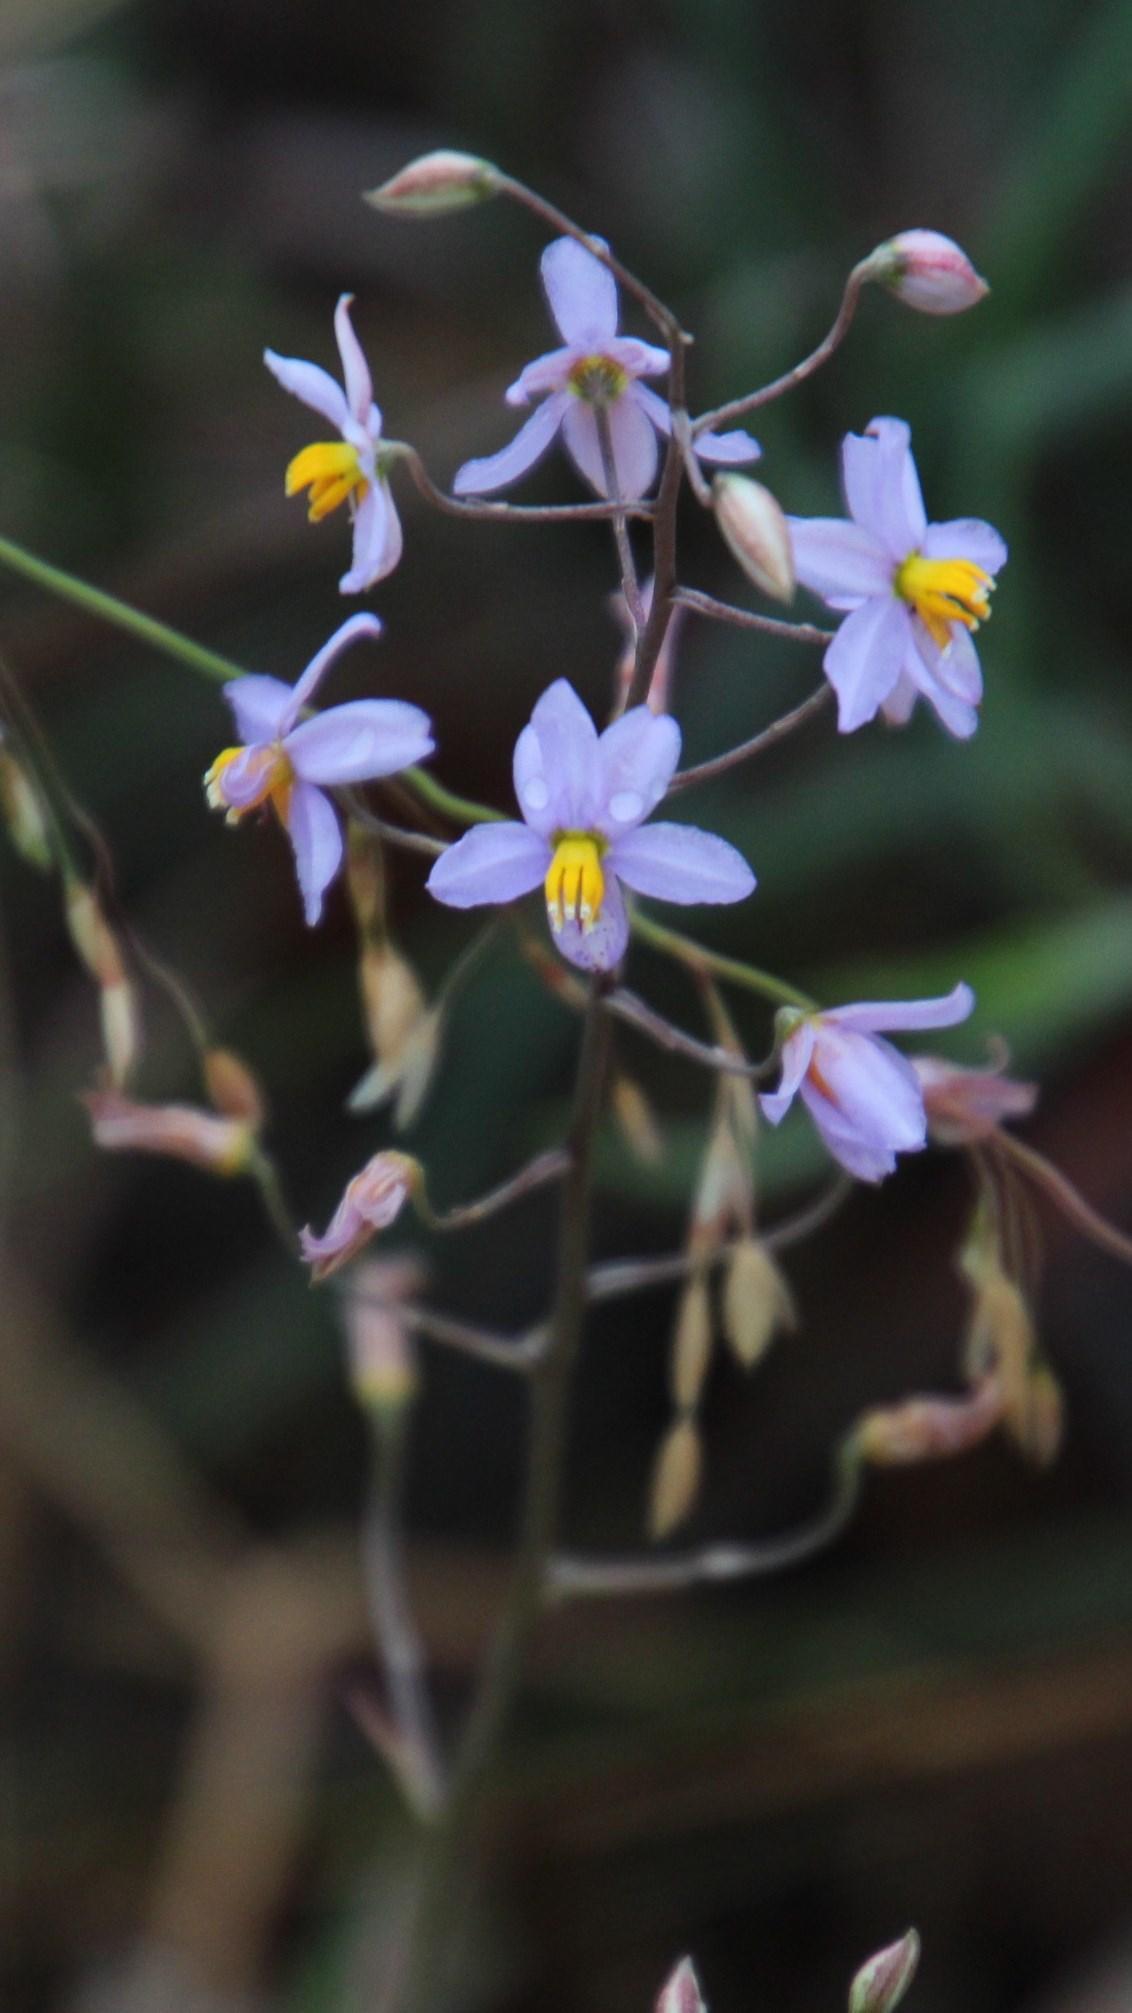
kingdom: Plantae
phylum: Tracheophyta
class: Liliopsida
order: Asparagales
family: Tecophilaeaceae
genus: Cyanella
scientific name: Cyanella hyacinthoides
